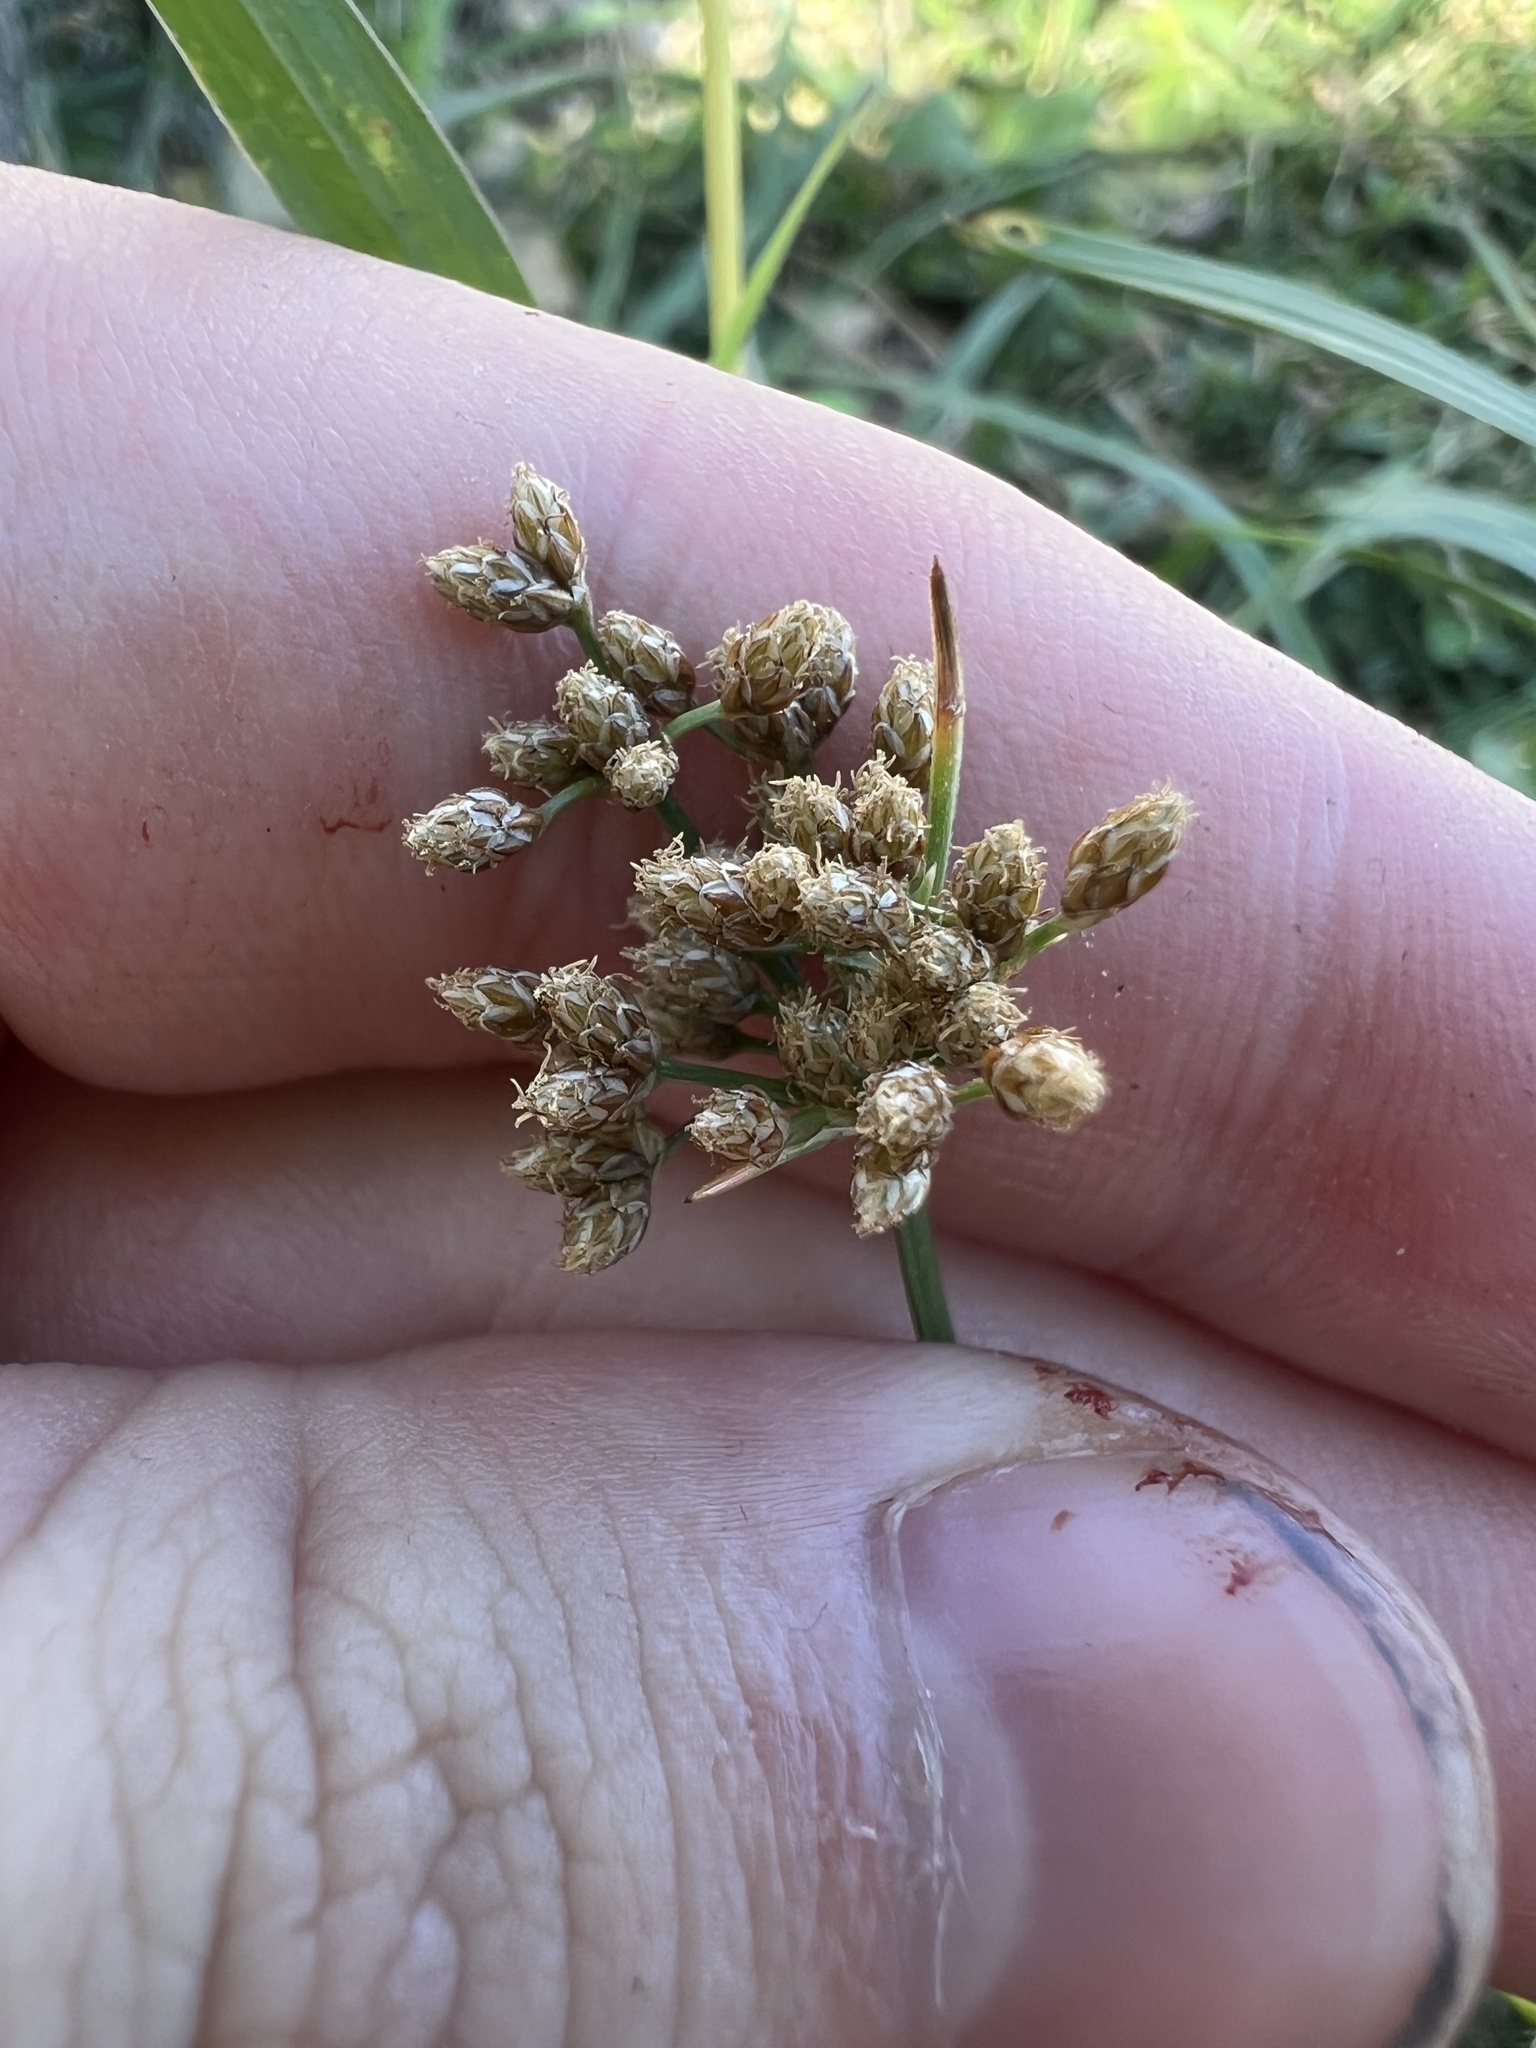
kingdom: Plantae
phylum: Tracheophyta
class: Liliopsida
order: Poales
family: Cyperaceae
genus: Fimbristylis
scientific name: Fimbristylis cymosa
